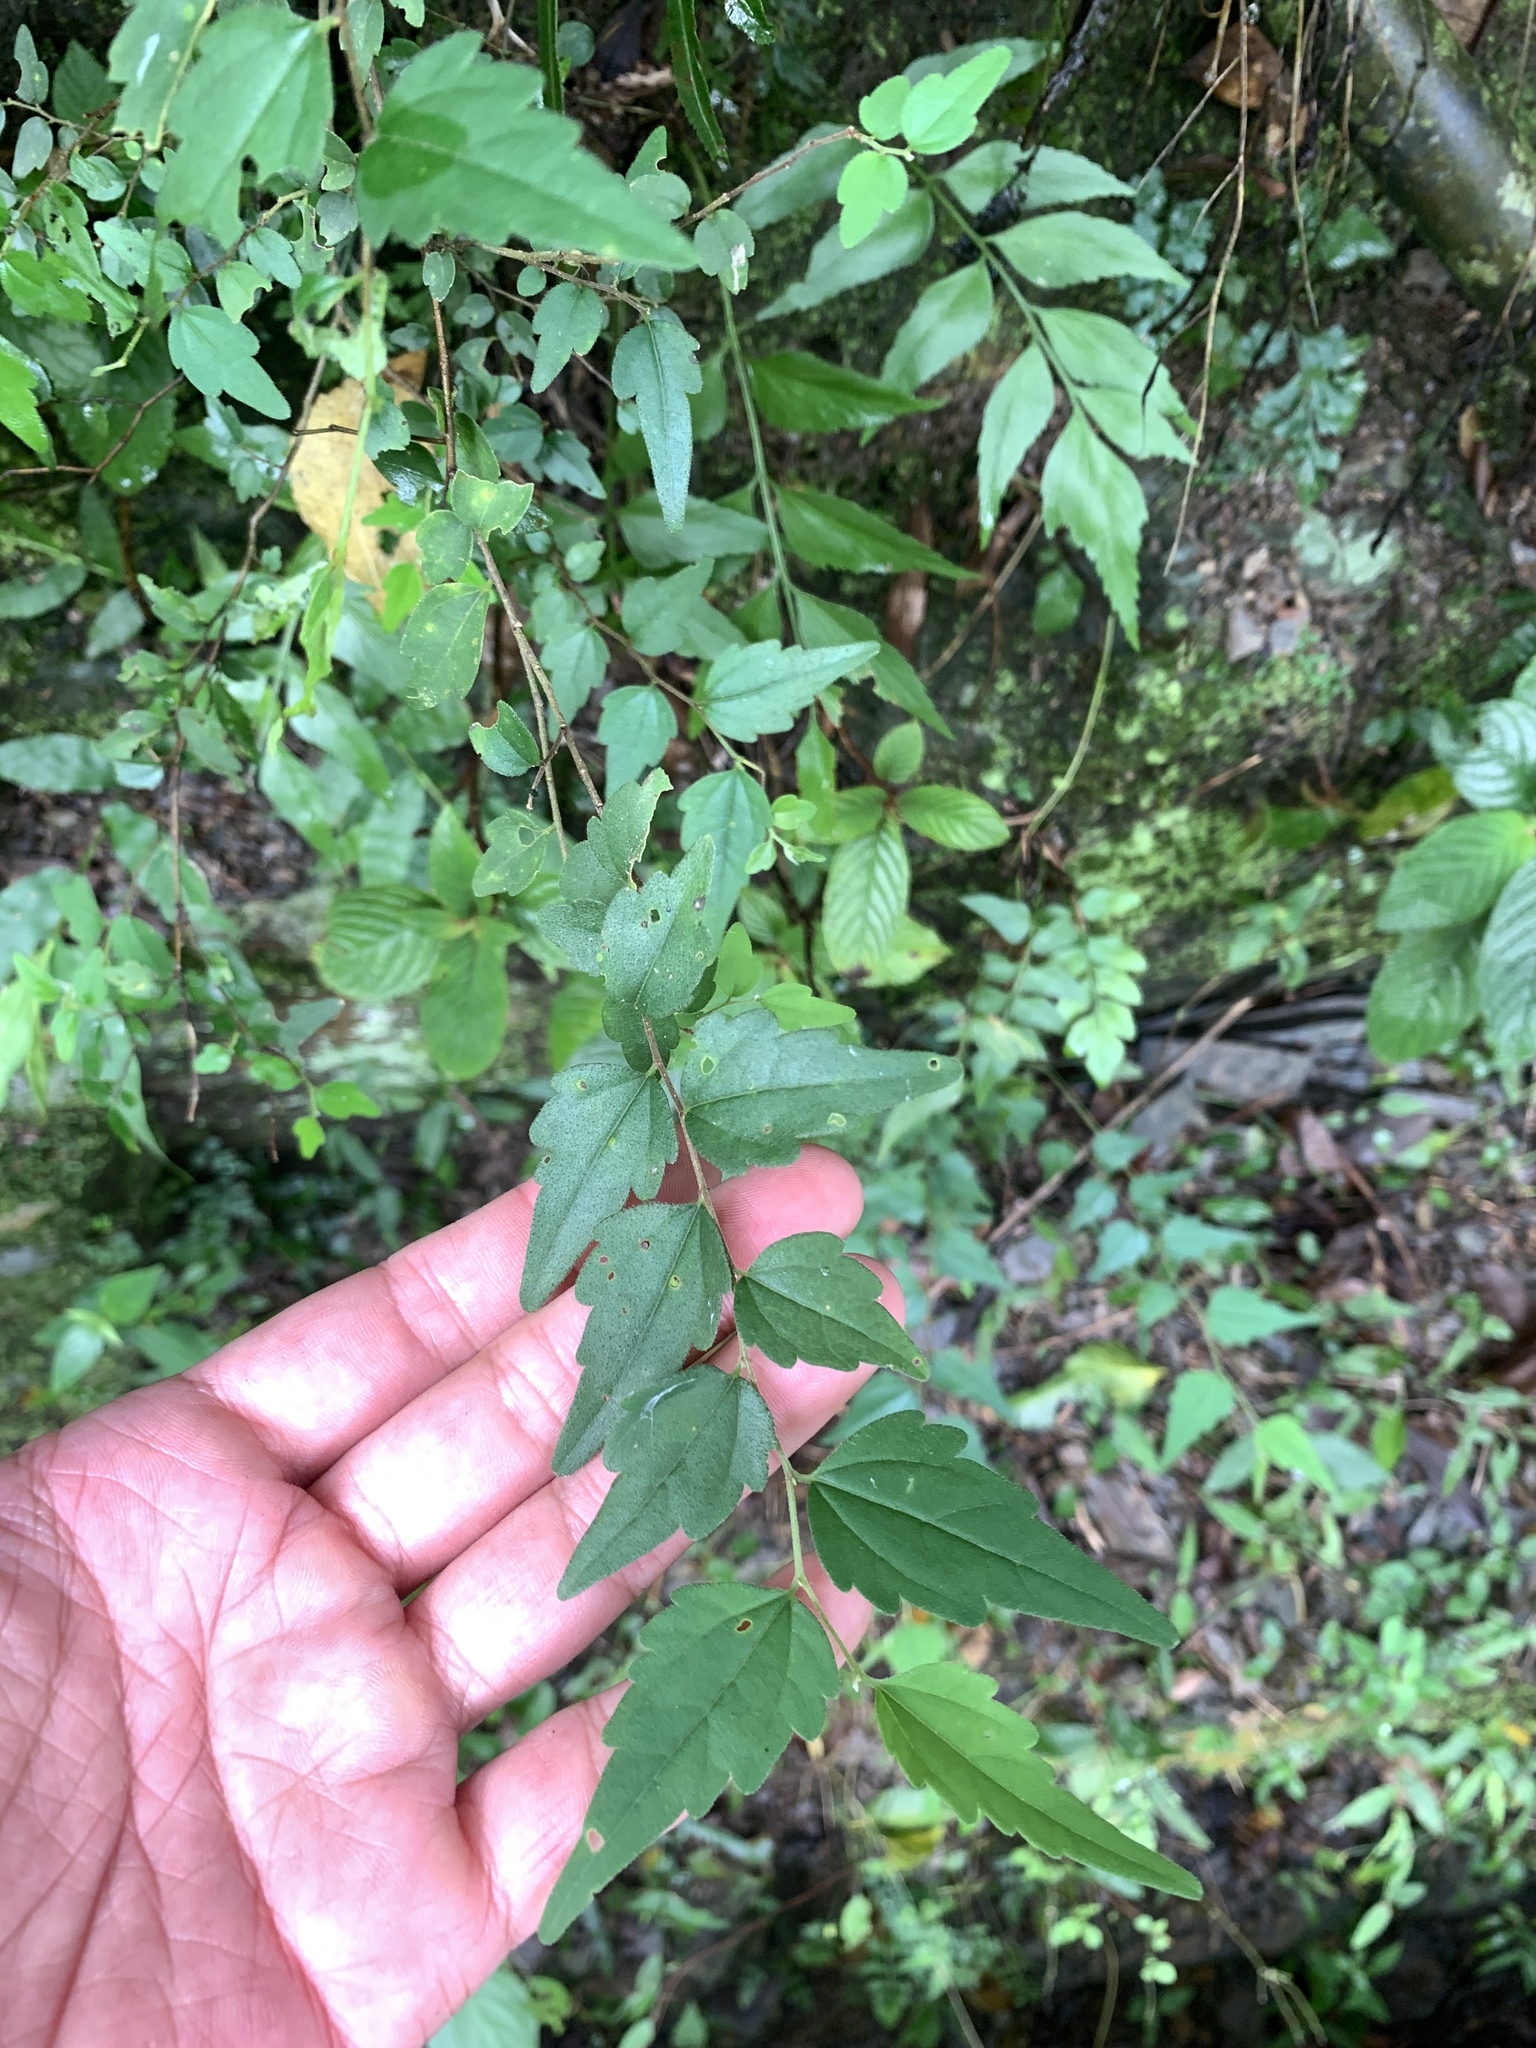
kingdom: Plantae
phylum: Tracheophyta
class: Magnoliopsida
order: Rosales
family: Cannabaceae
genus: Celtis
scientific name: Celtis sinensis
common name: Chinese hackberry
